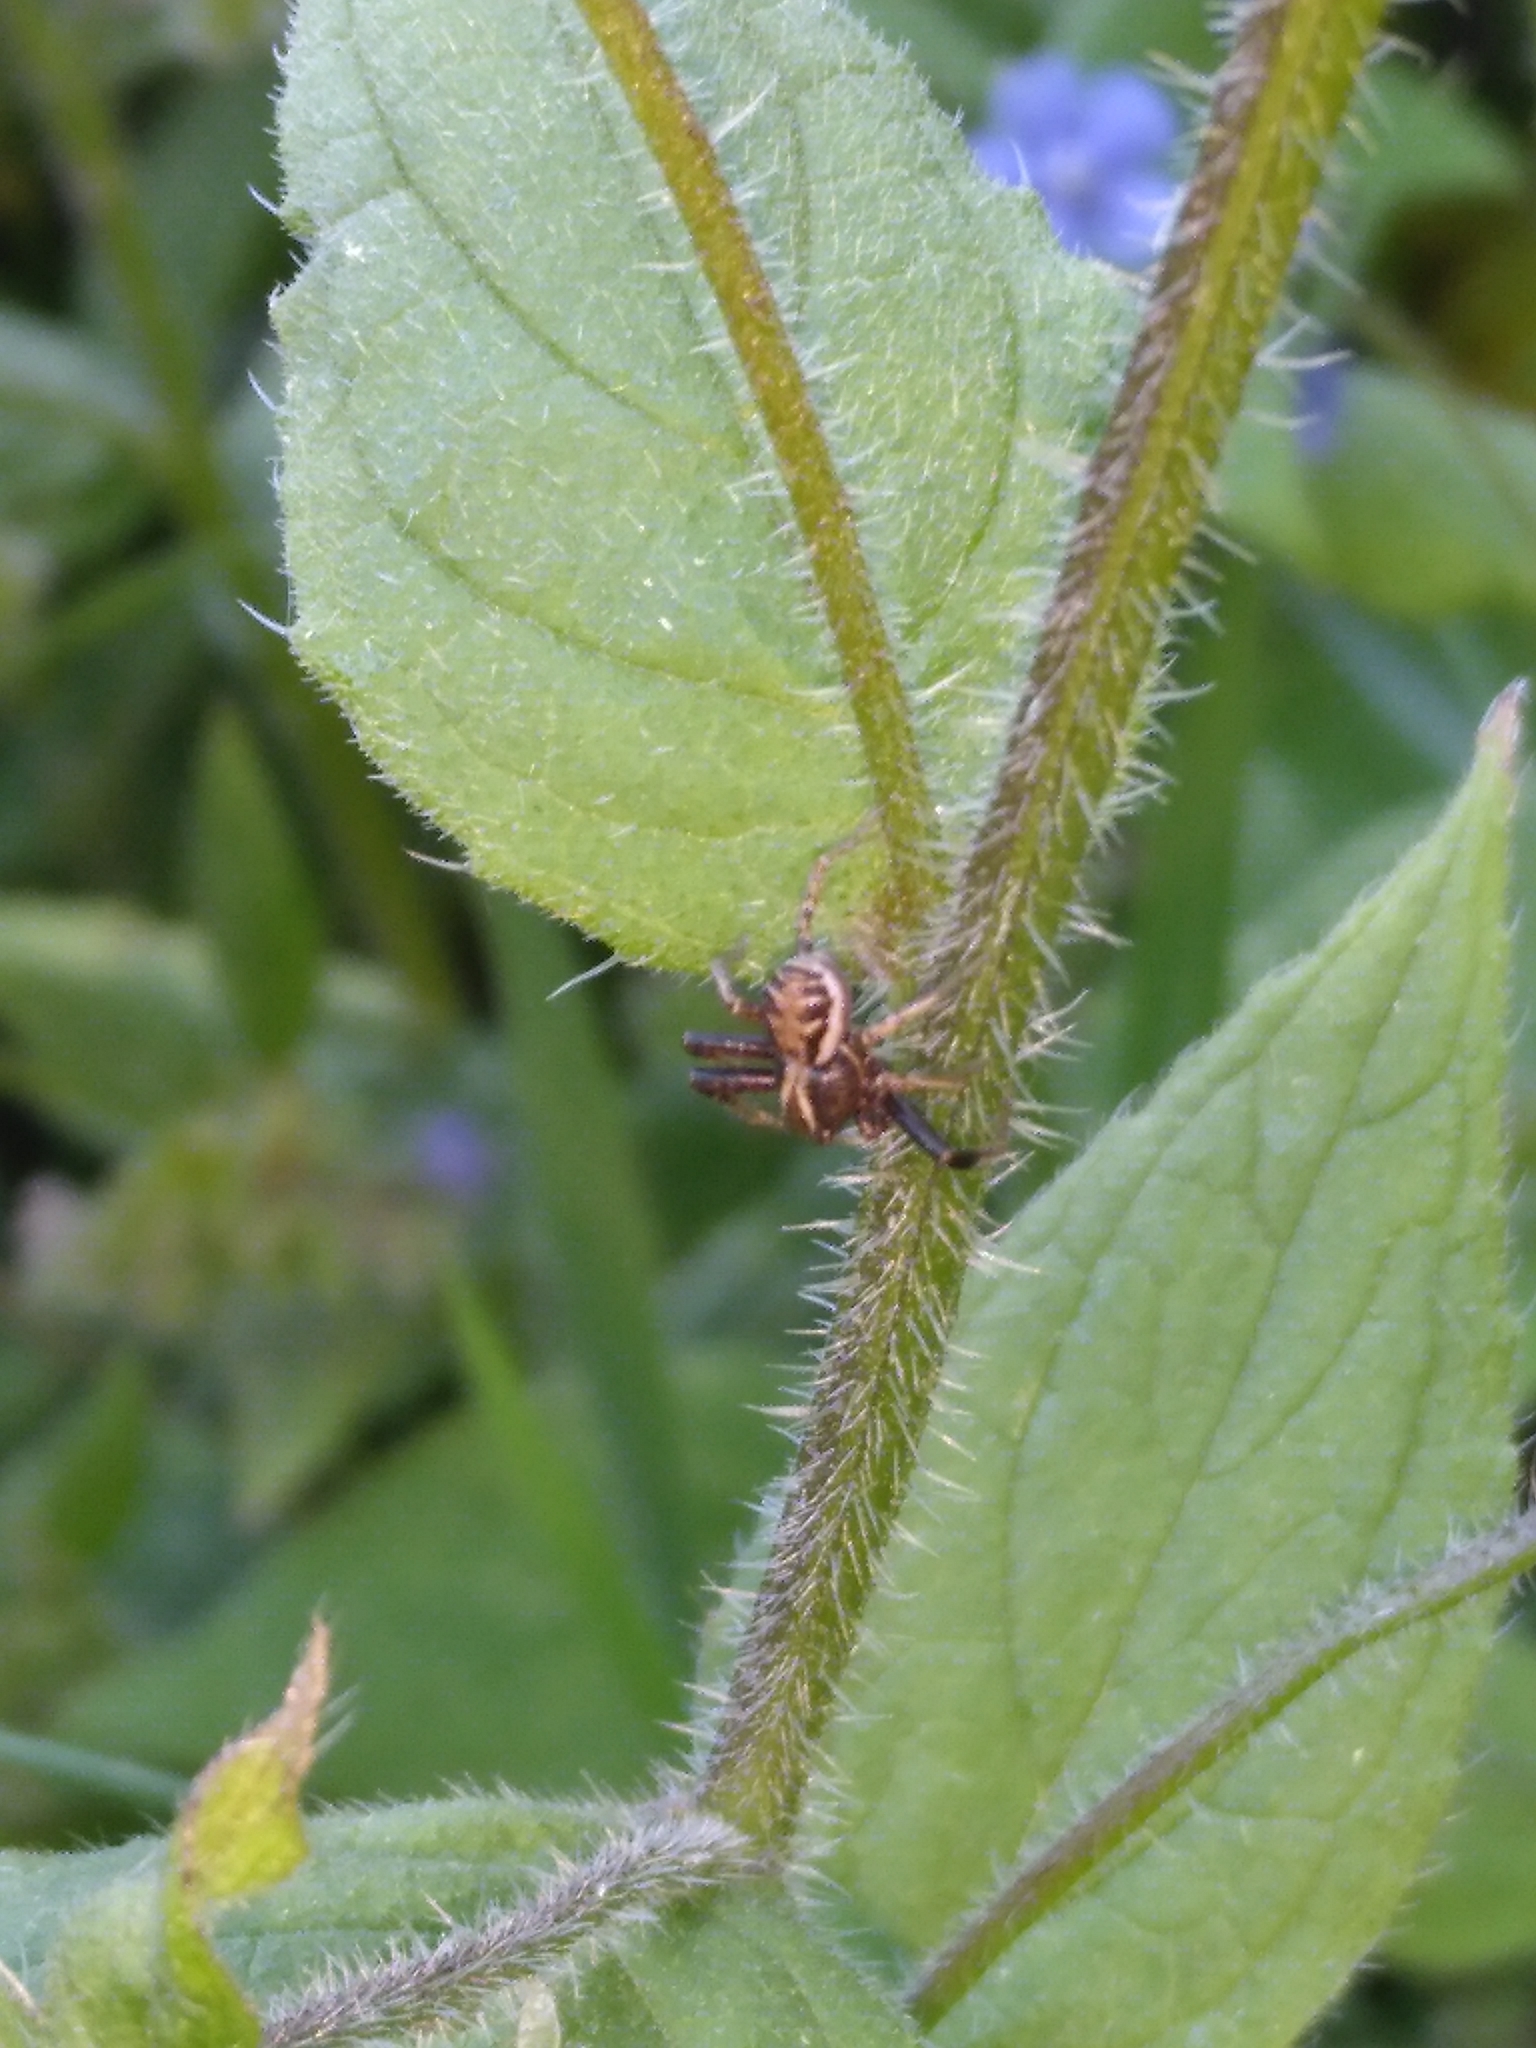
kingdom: Animalia
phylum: Arthropoda
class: Arachnida
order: Araneae
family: Thomisidae
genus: Xysticus
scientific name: Xysticus
